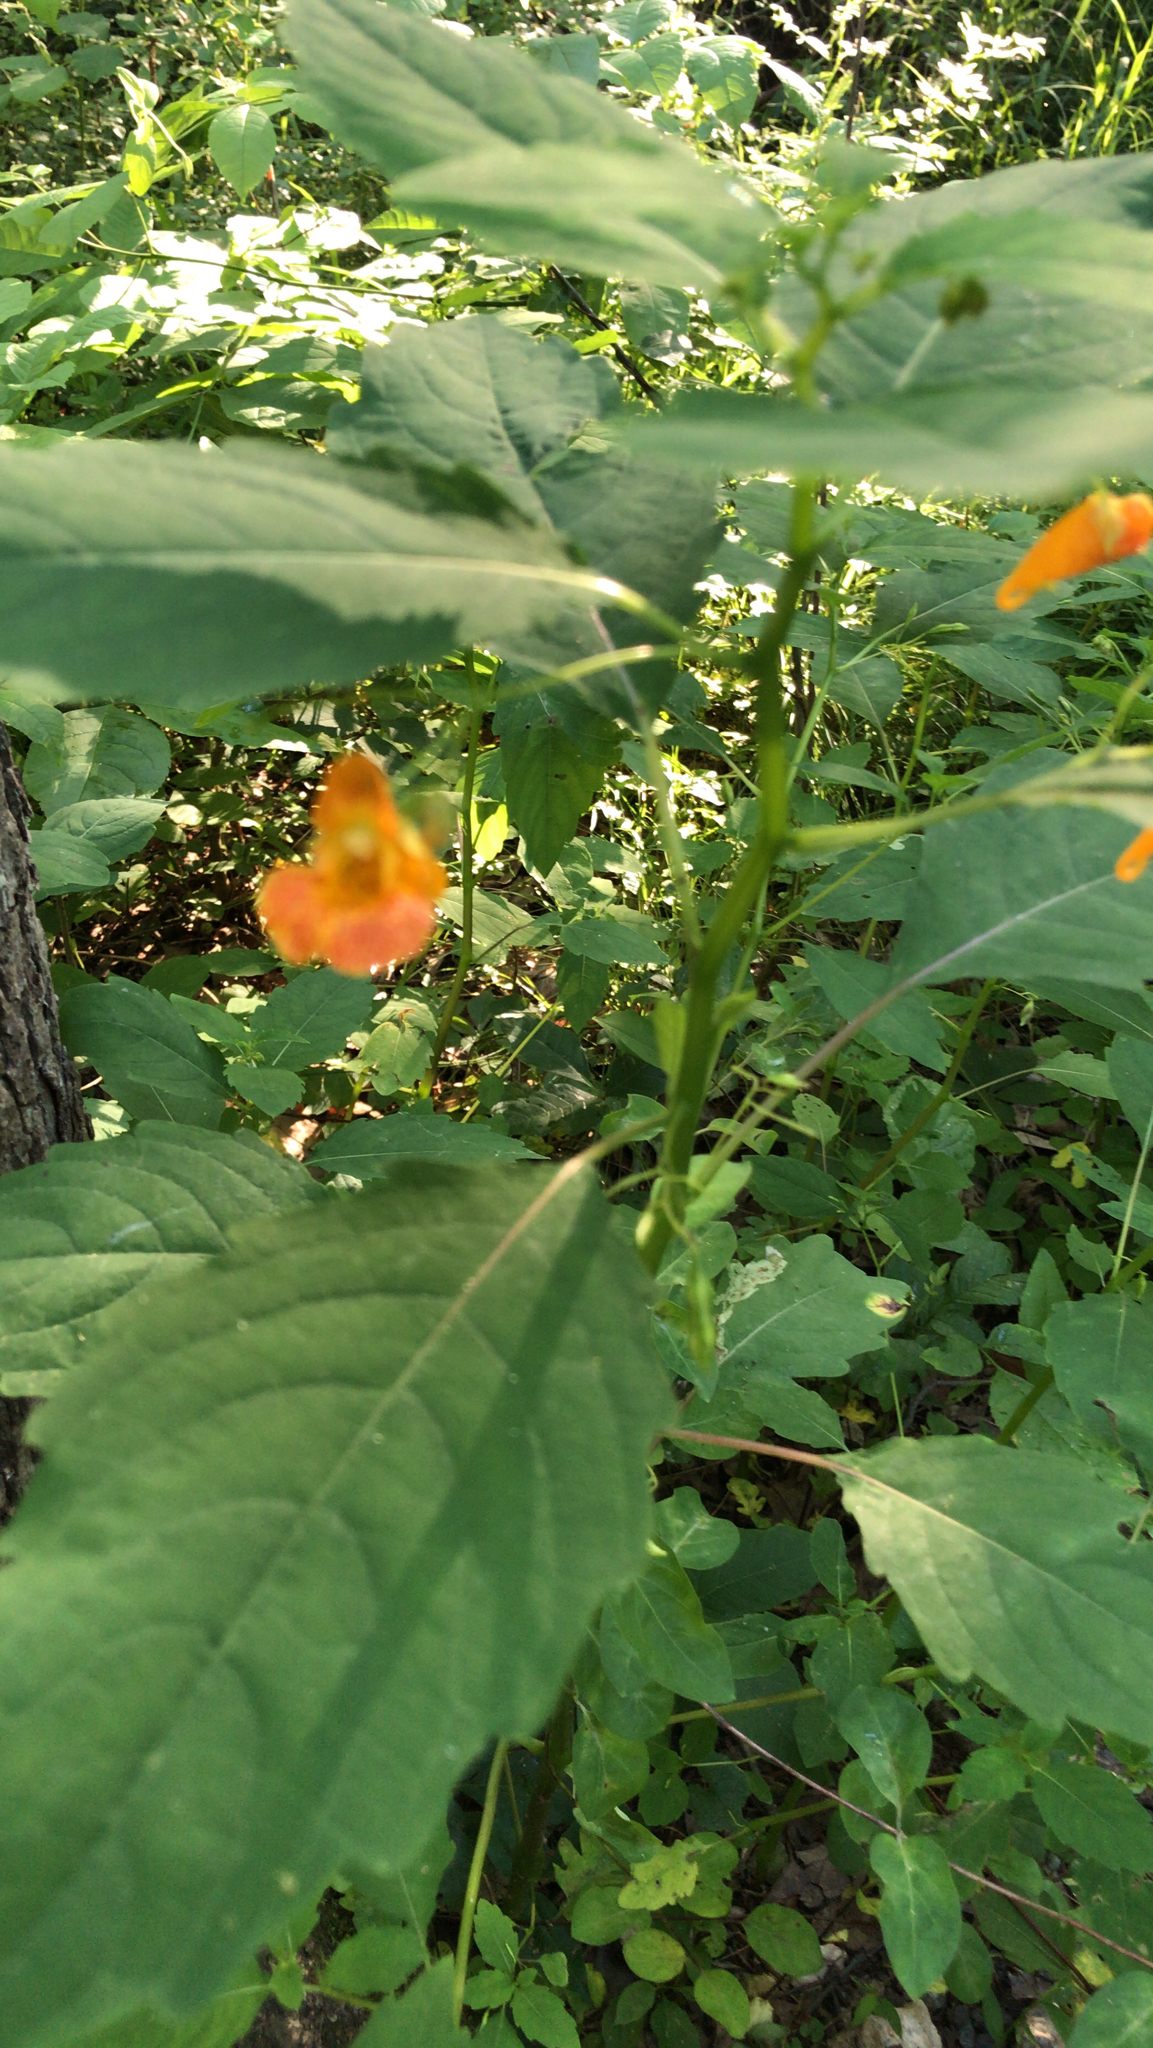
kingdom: Plantae
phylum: Tracheophyta
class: Magnoliopsida
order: Ericales
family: Balsaminaceae
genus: Impatiens
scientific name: Impatiens capensis
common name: Orange balsam
